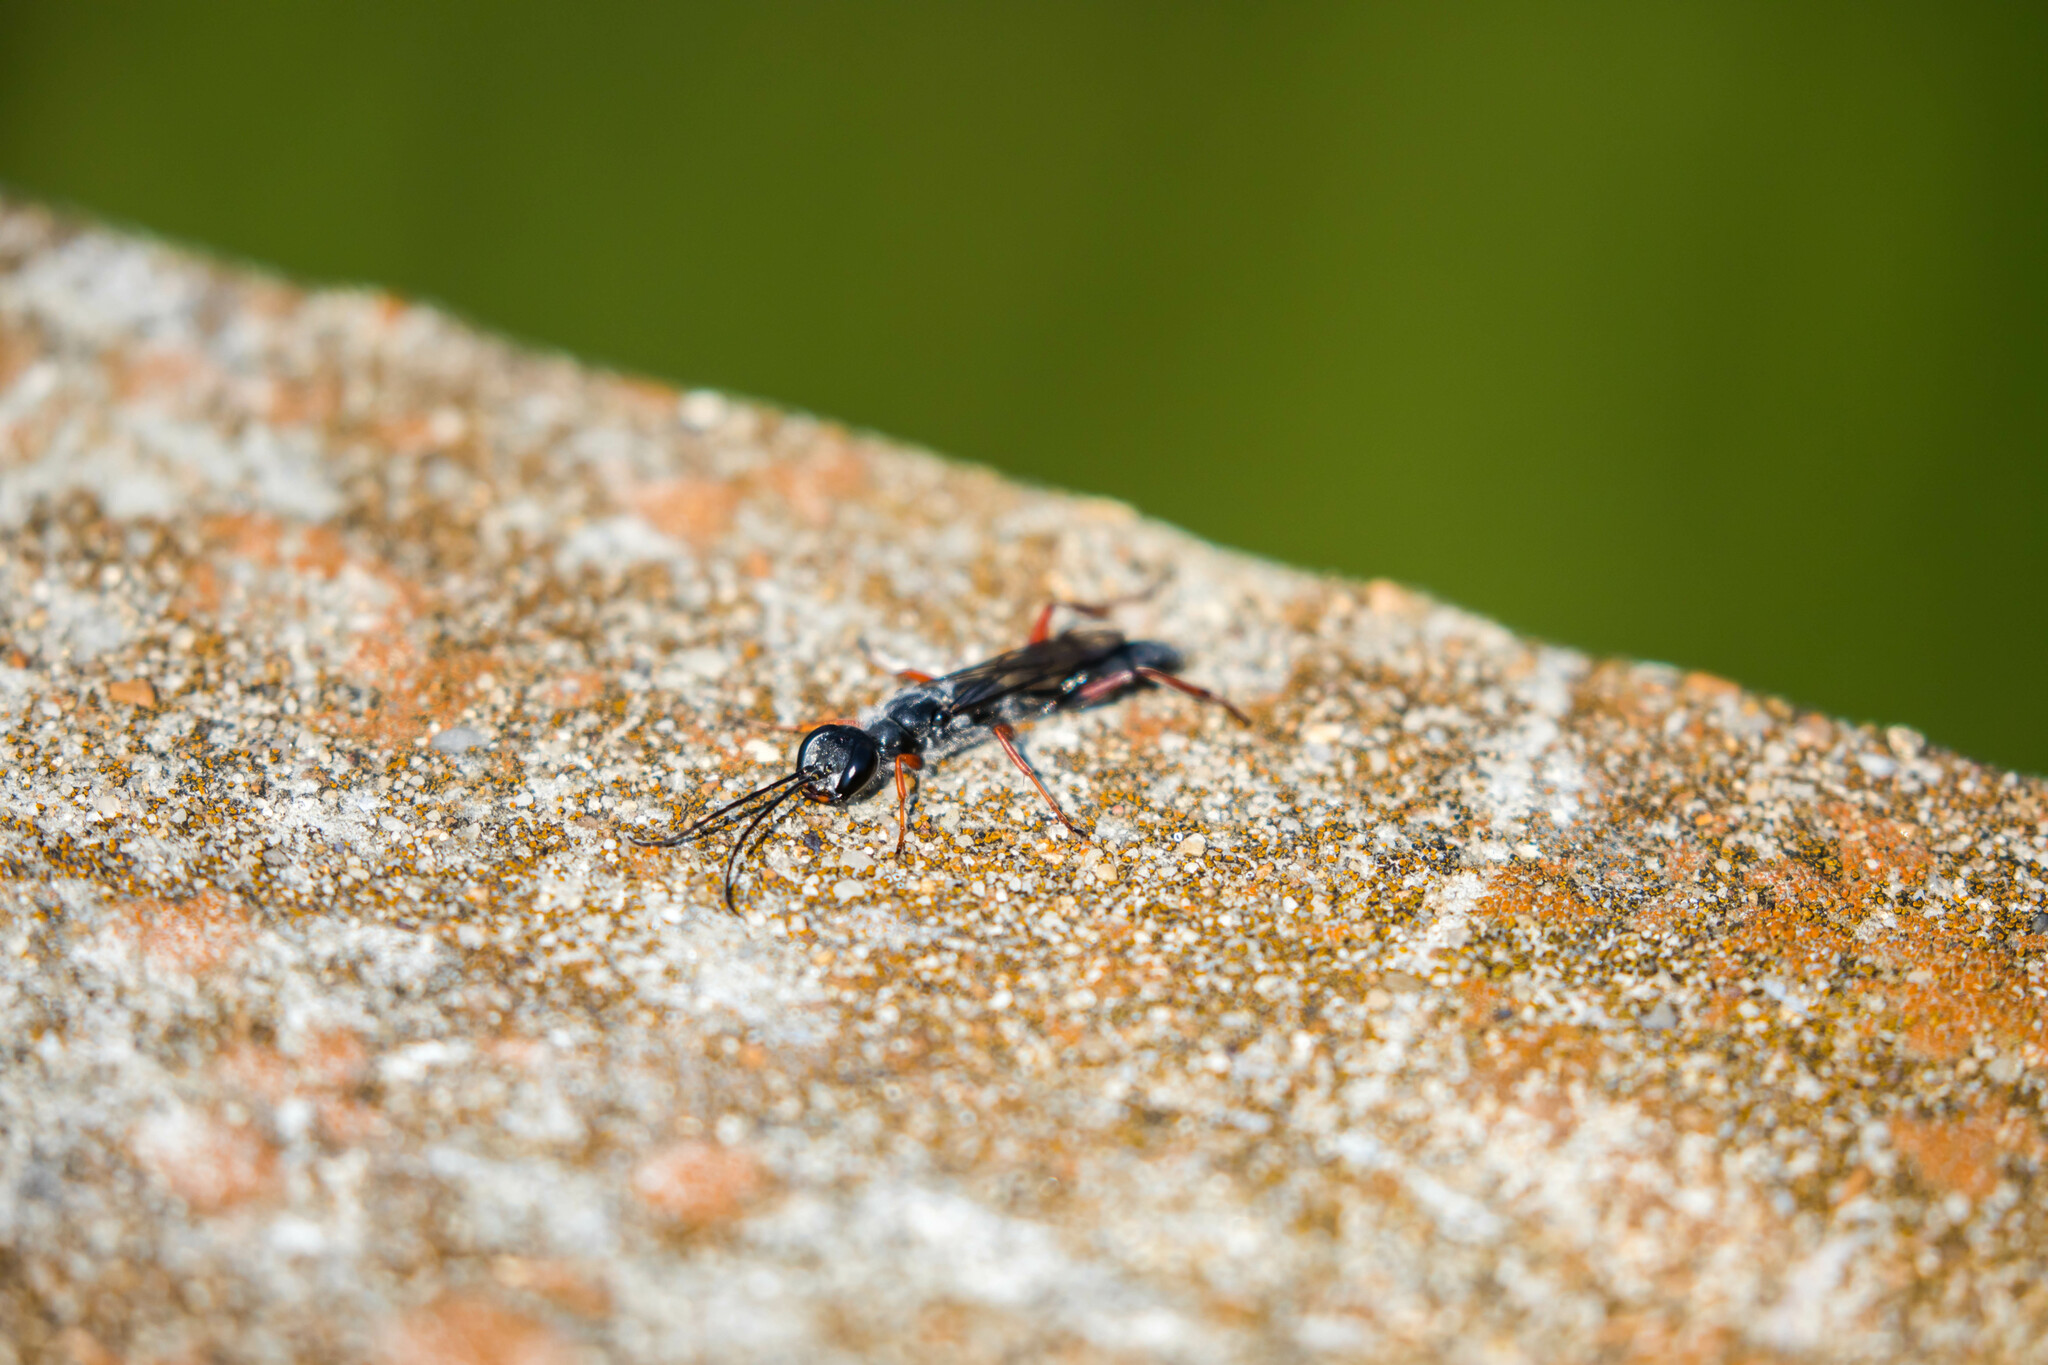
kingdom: Animalia
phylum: Arthropoda
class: Insecta
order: Hymenoptera
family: Sphecidae
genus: Podium
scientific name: Podium rufipes
